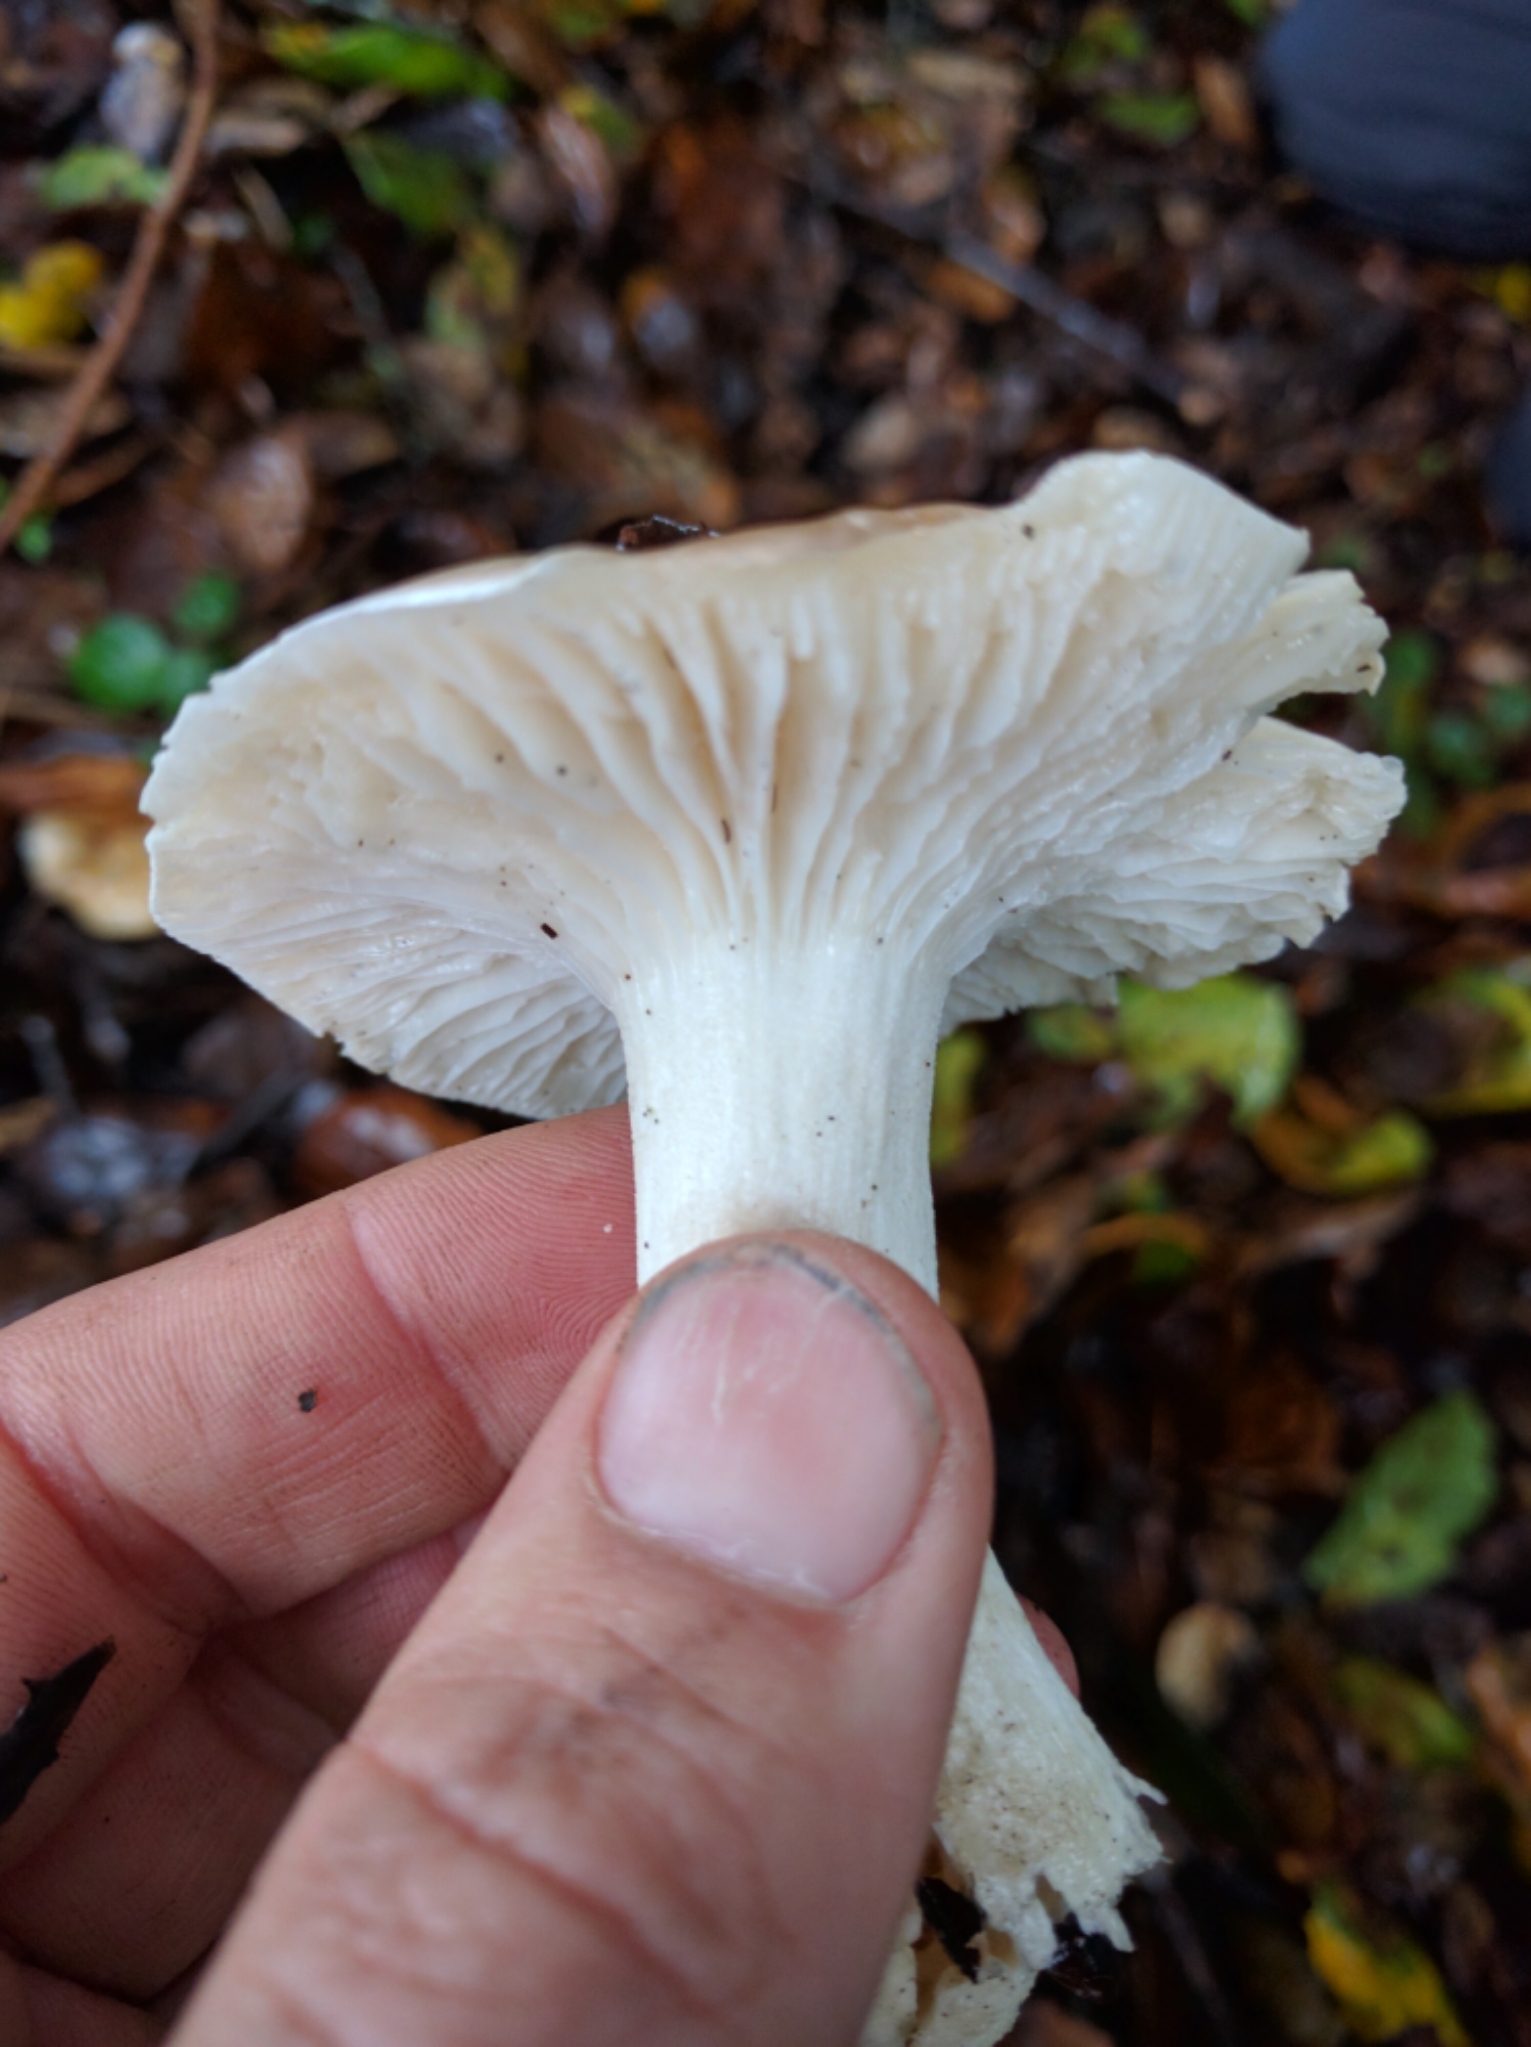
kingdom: Fungi
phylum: Basidiomycota
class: Agaricomycetes
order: Agaricales
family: Hygrophoraceae
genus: Hygrophorus
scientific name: Hygrophorus roseobrunneus
